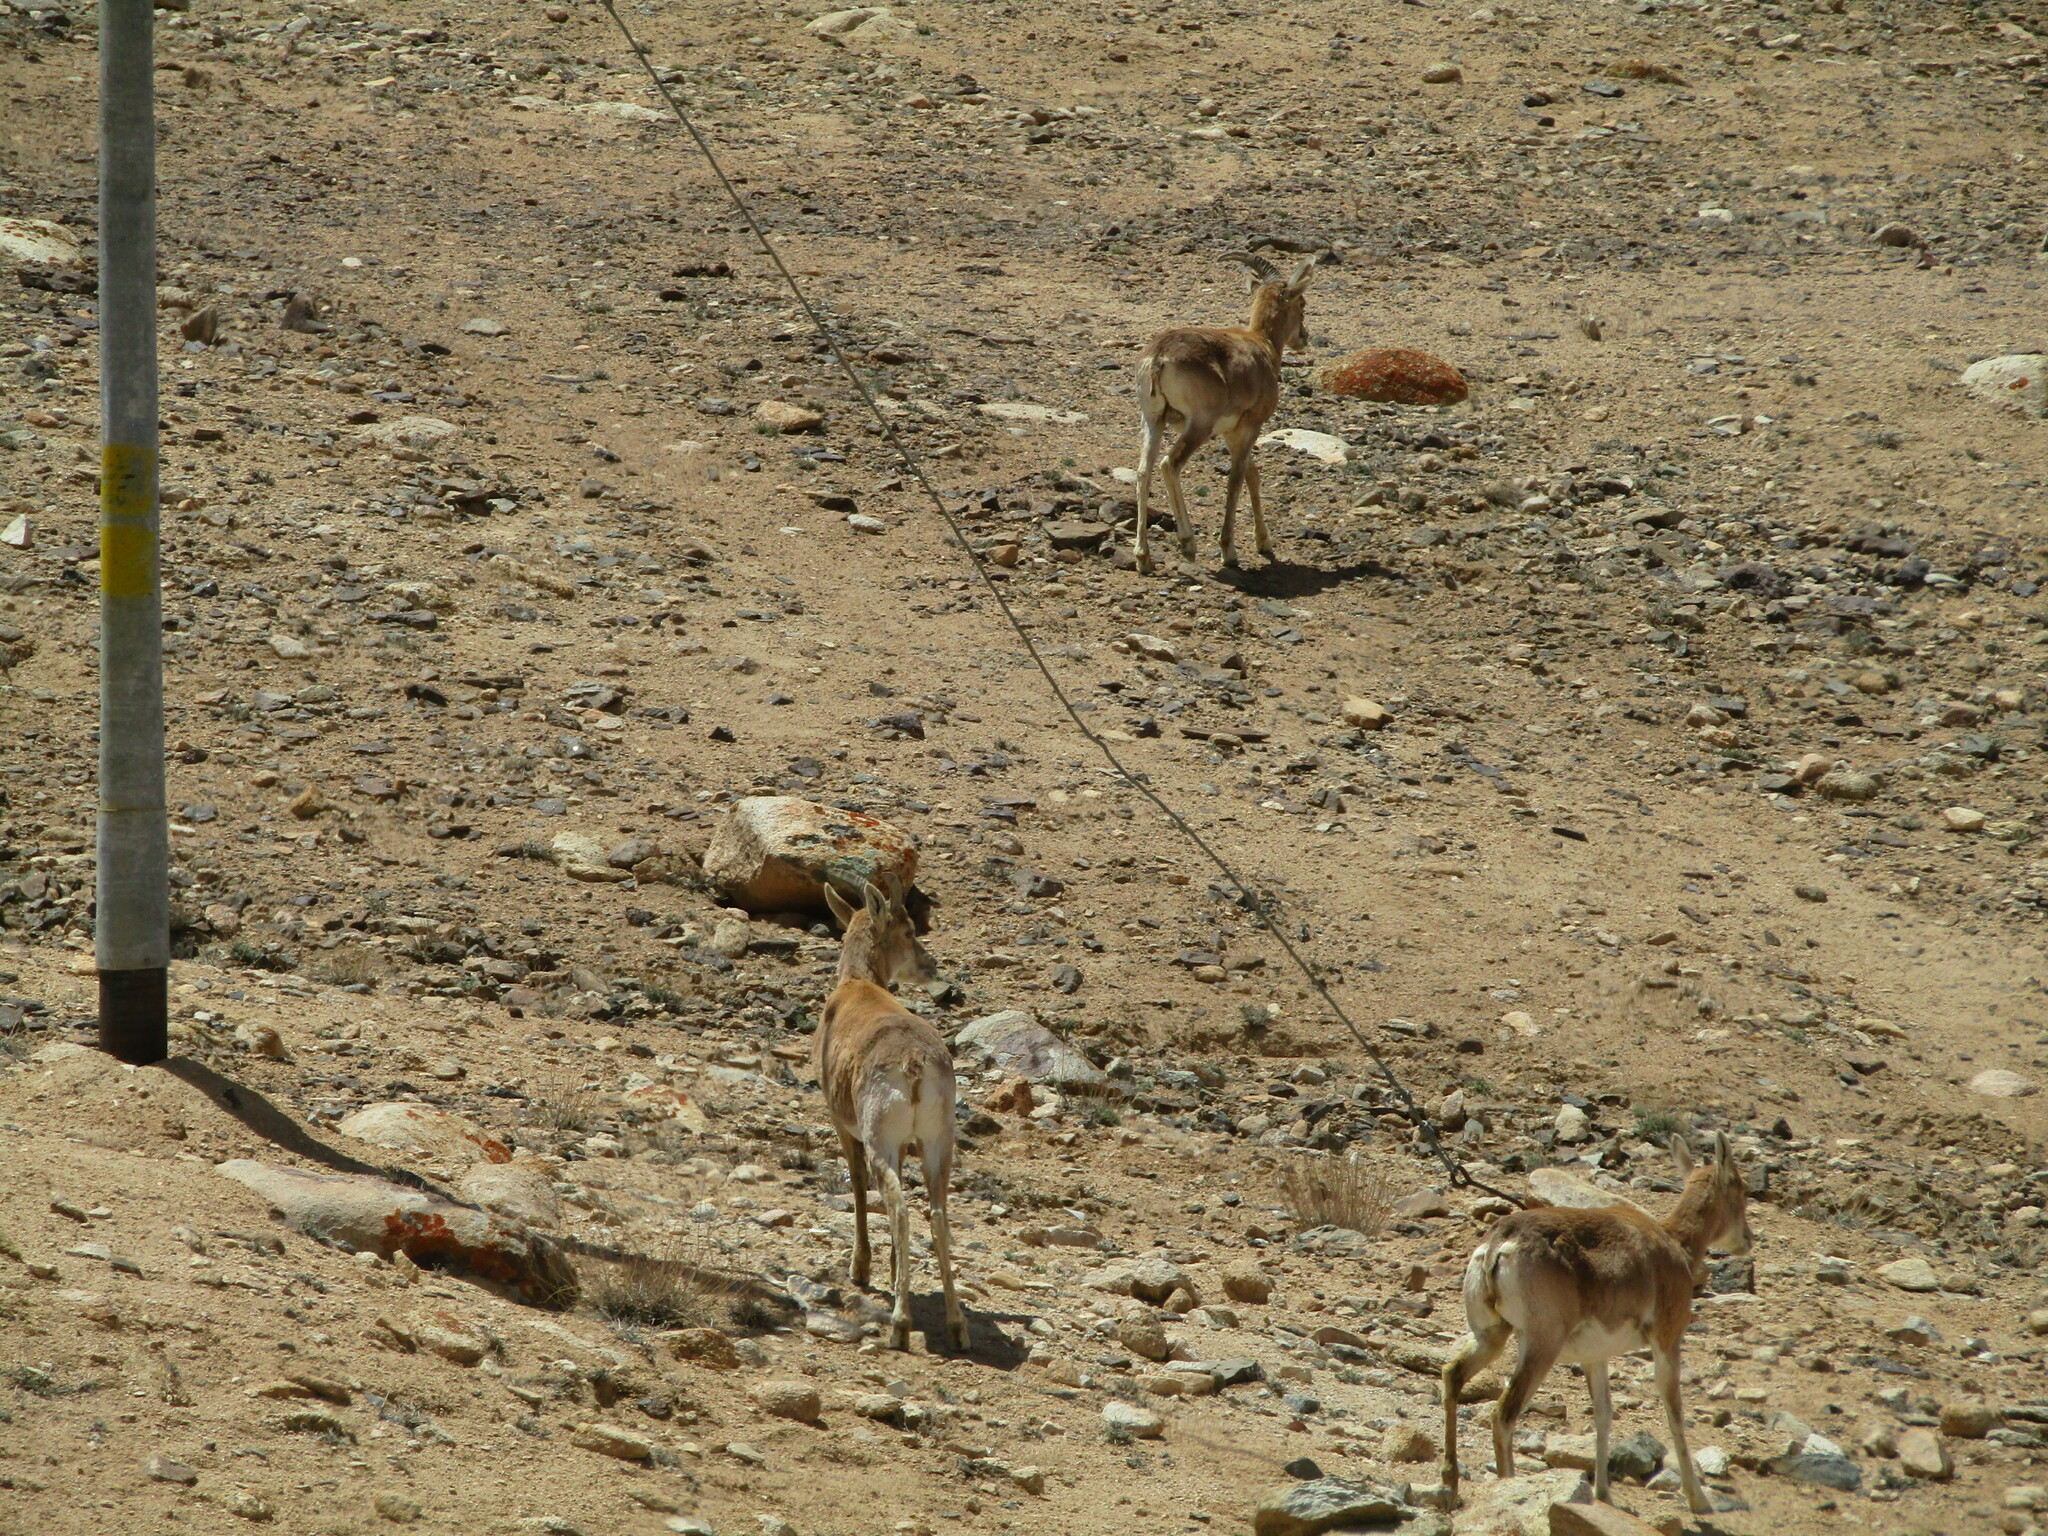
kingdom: Animalia
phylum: Chordata
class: Mammalia
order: Artiodactyla
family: Bovidae
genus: Ovis
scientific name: Ovis aries
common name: Domestic sheep
